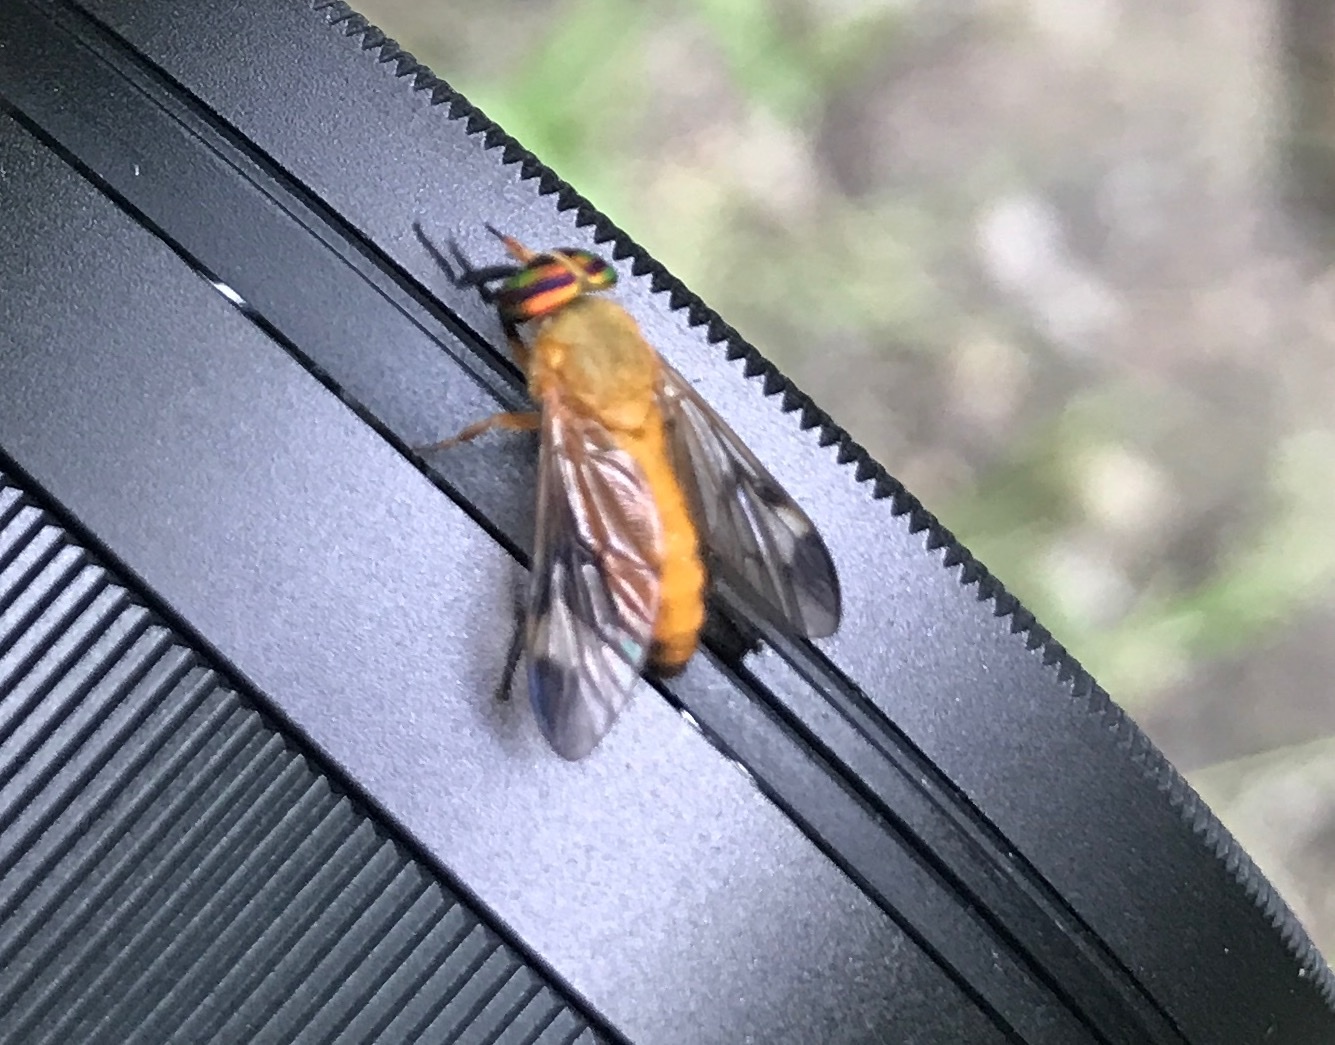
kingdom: Animalia
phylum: Arthropoda
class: Insecta
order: Diptera
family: Tabanidae
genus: Diachlorus
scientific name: Diachlorus ferrugatus
